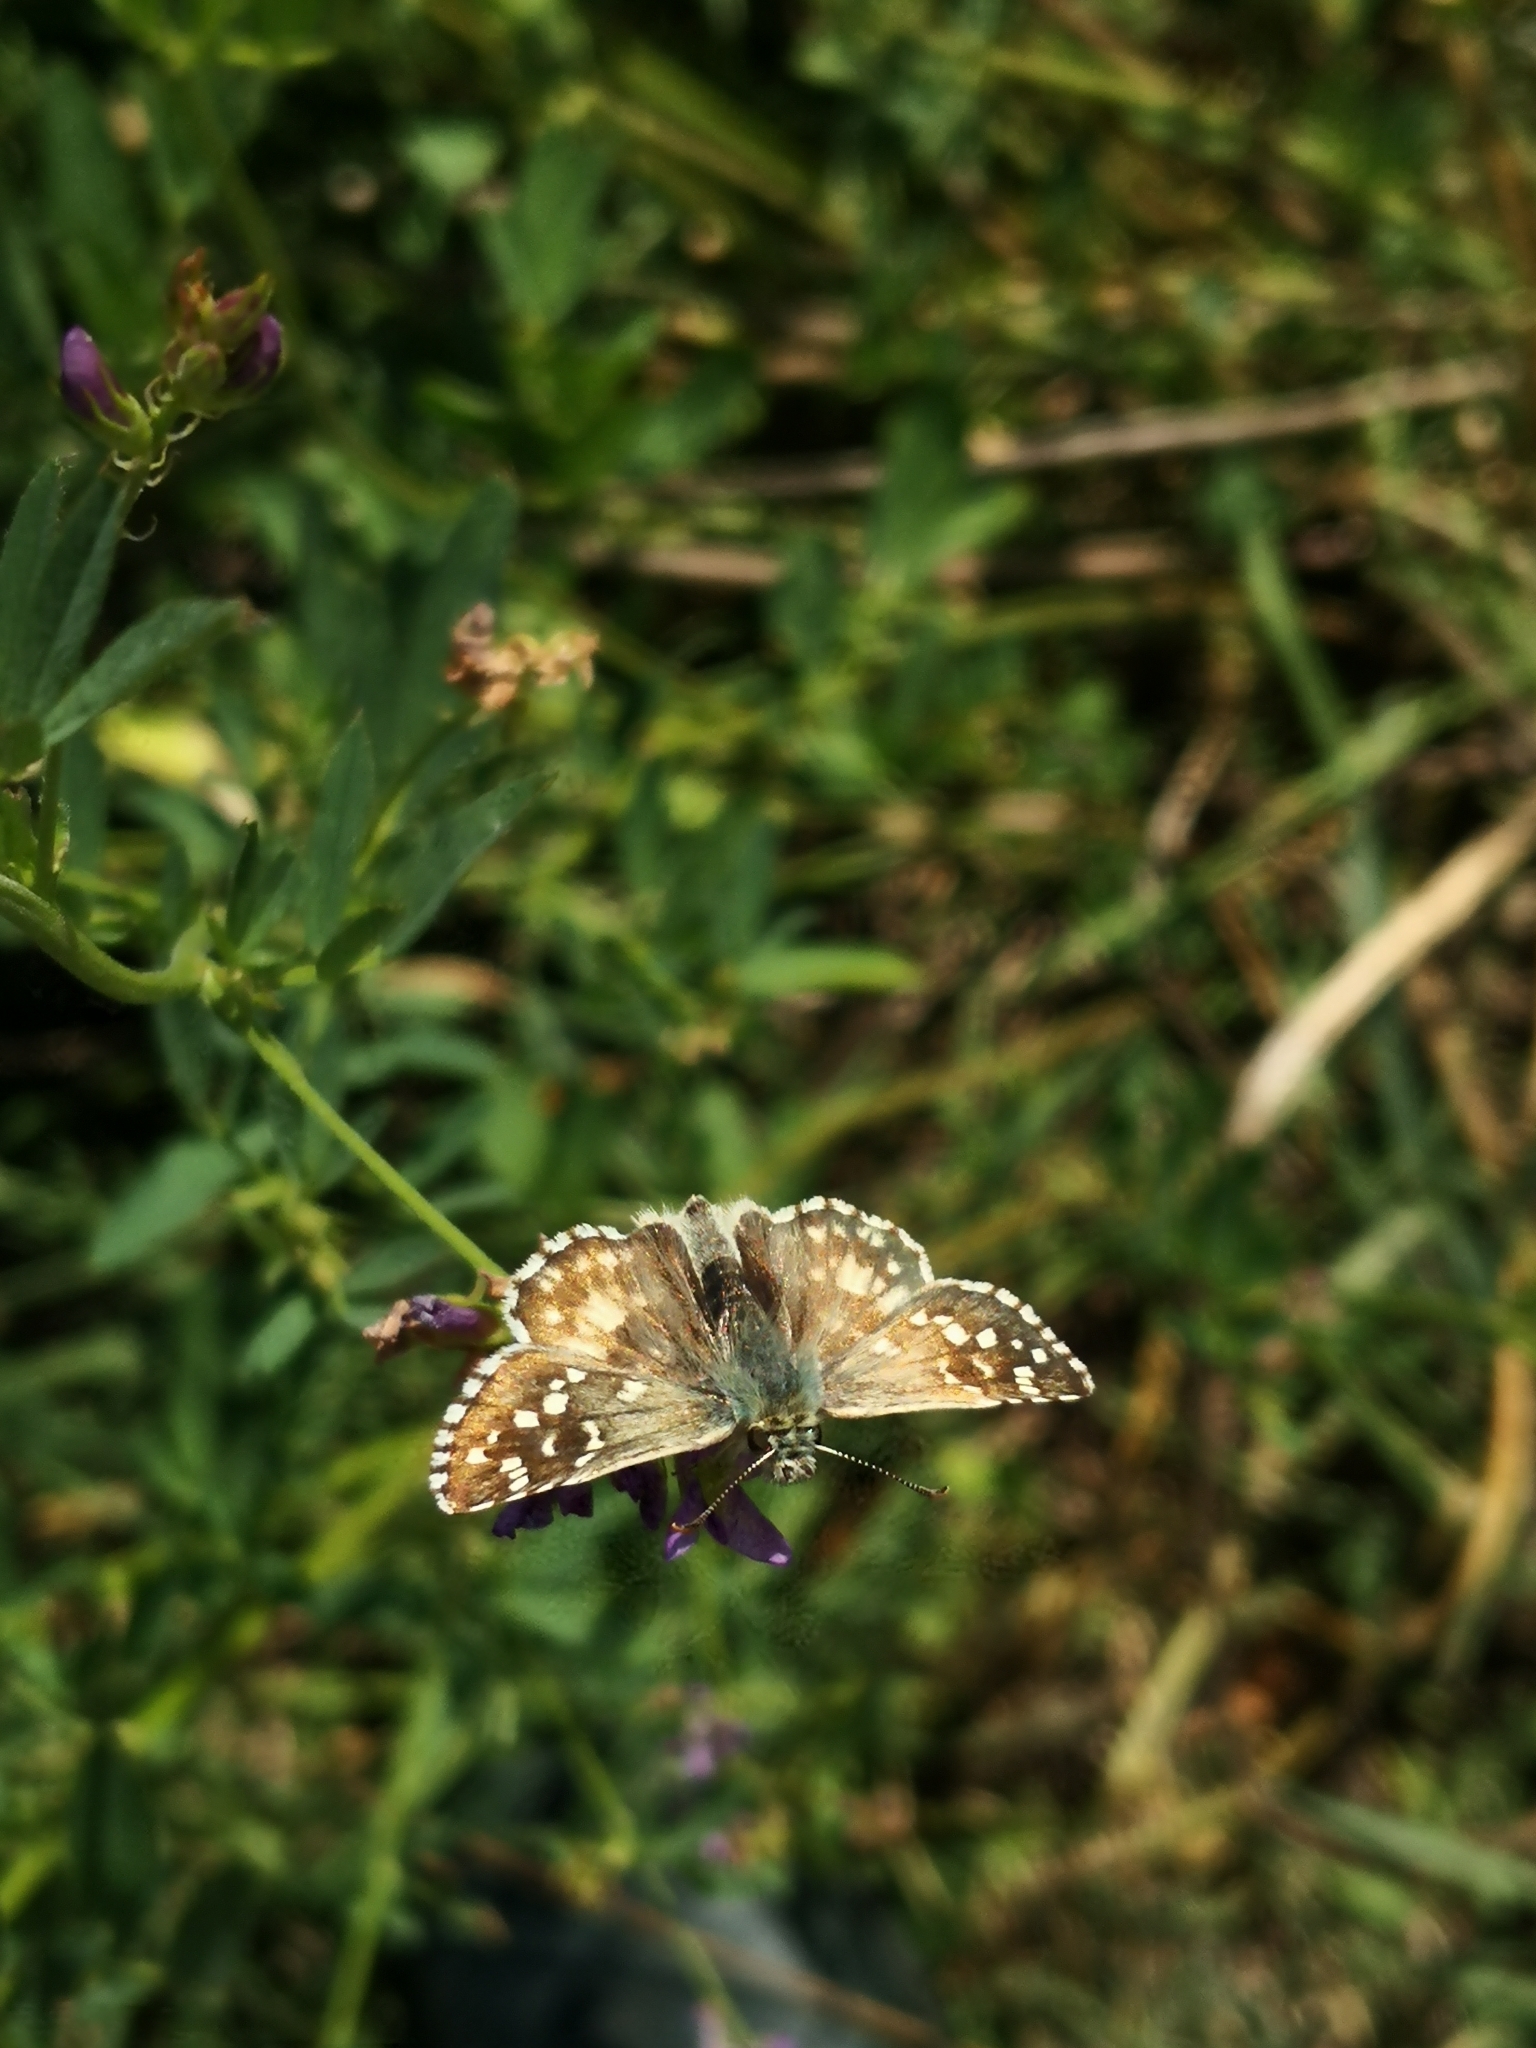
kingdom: Animalia
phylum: Arthropoda
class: Insecta
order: Lepidoptera
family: Hesperiidae
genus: Pyrgus
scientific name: Pyrgus armoricanus
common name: Oberthür's grizzled skipper
